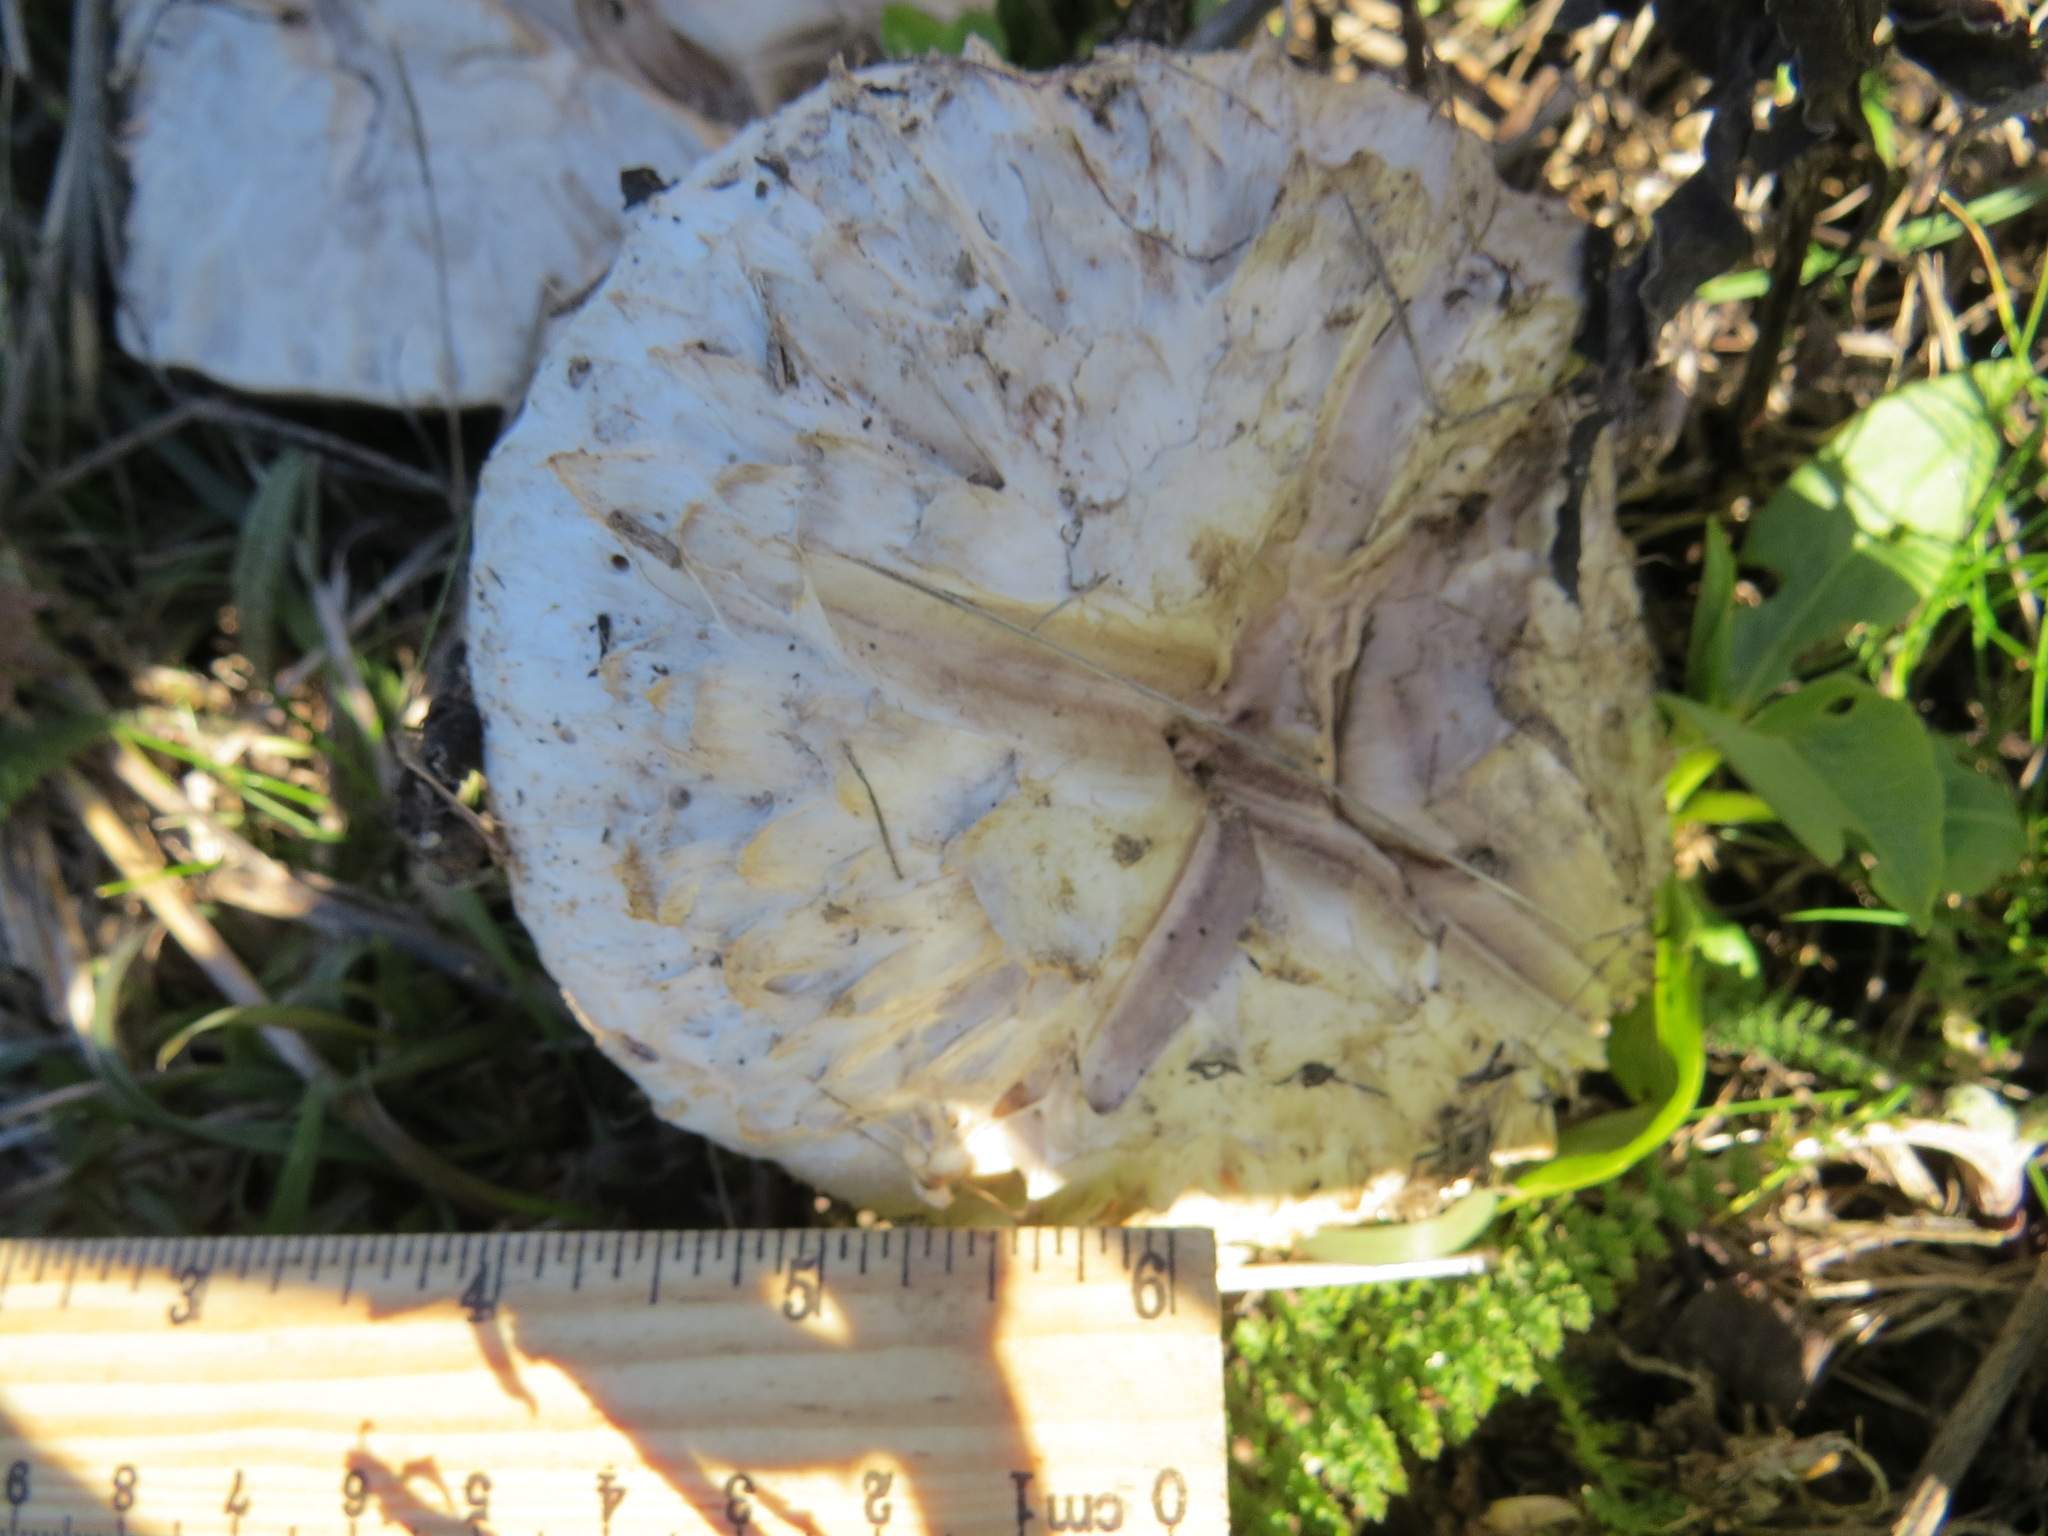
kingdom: Fungi
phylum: Basidiomycota
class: Agaricomycetes
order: Agaricales
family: Agaricaceae
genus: Agaricus
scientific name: Agaricus bernardii
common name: Salty mushroom
